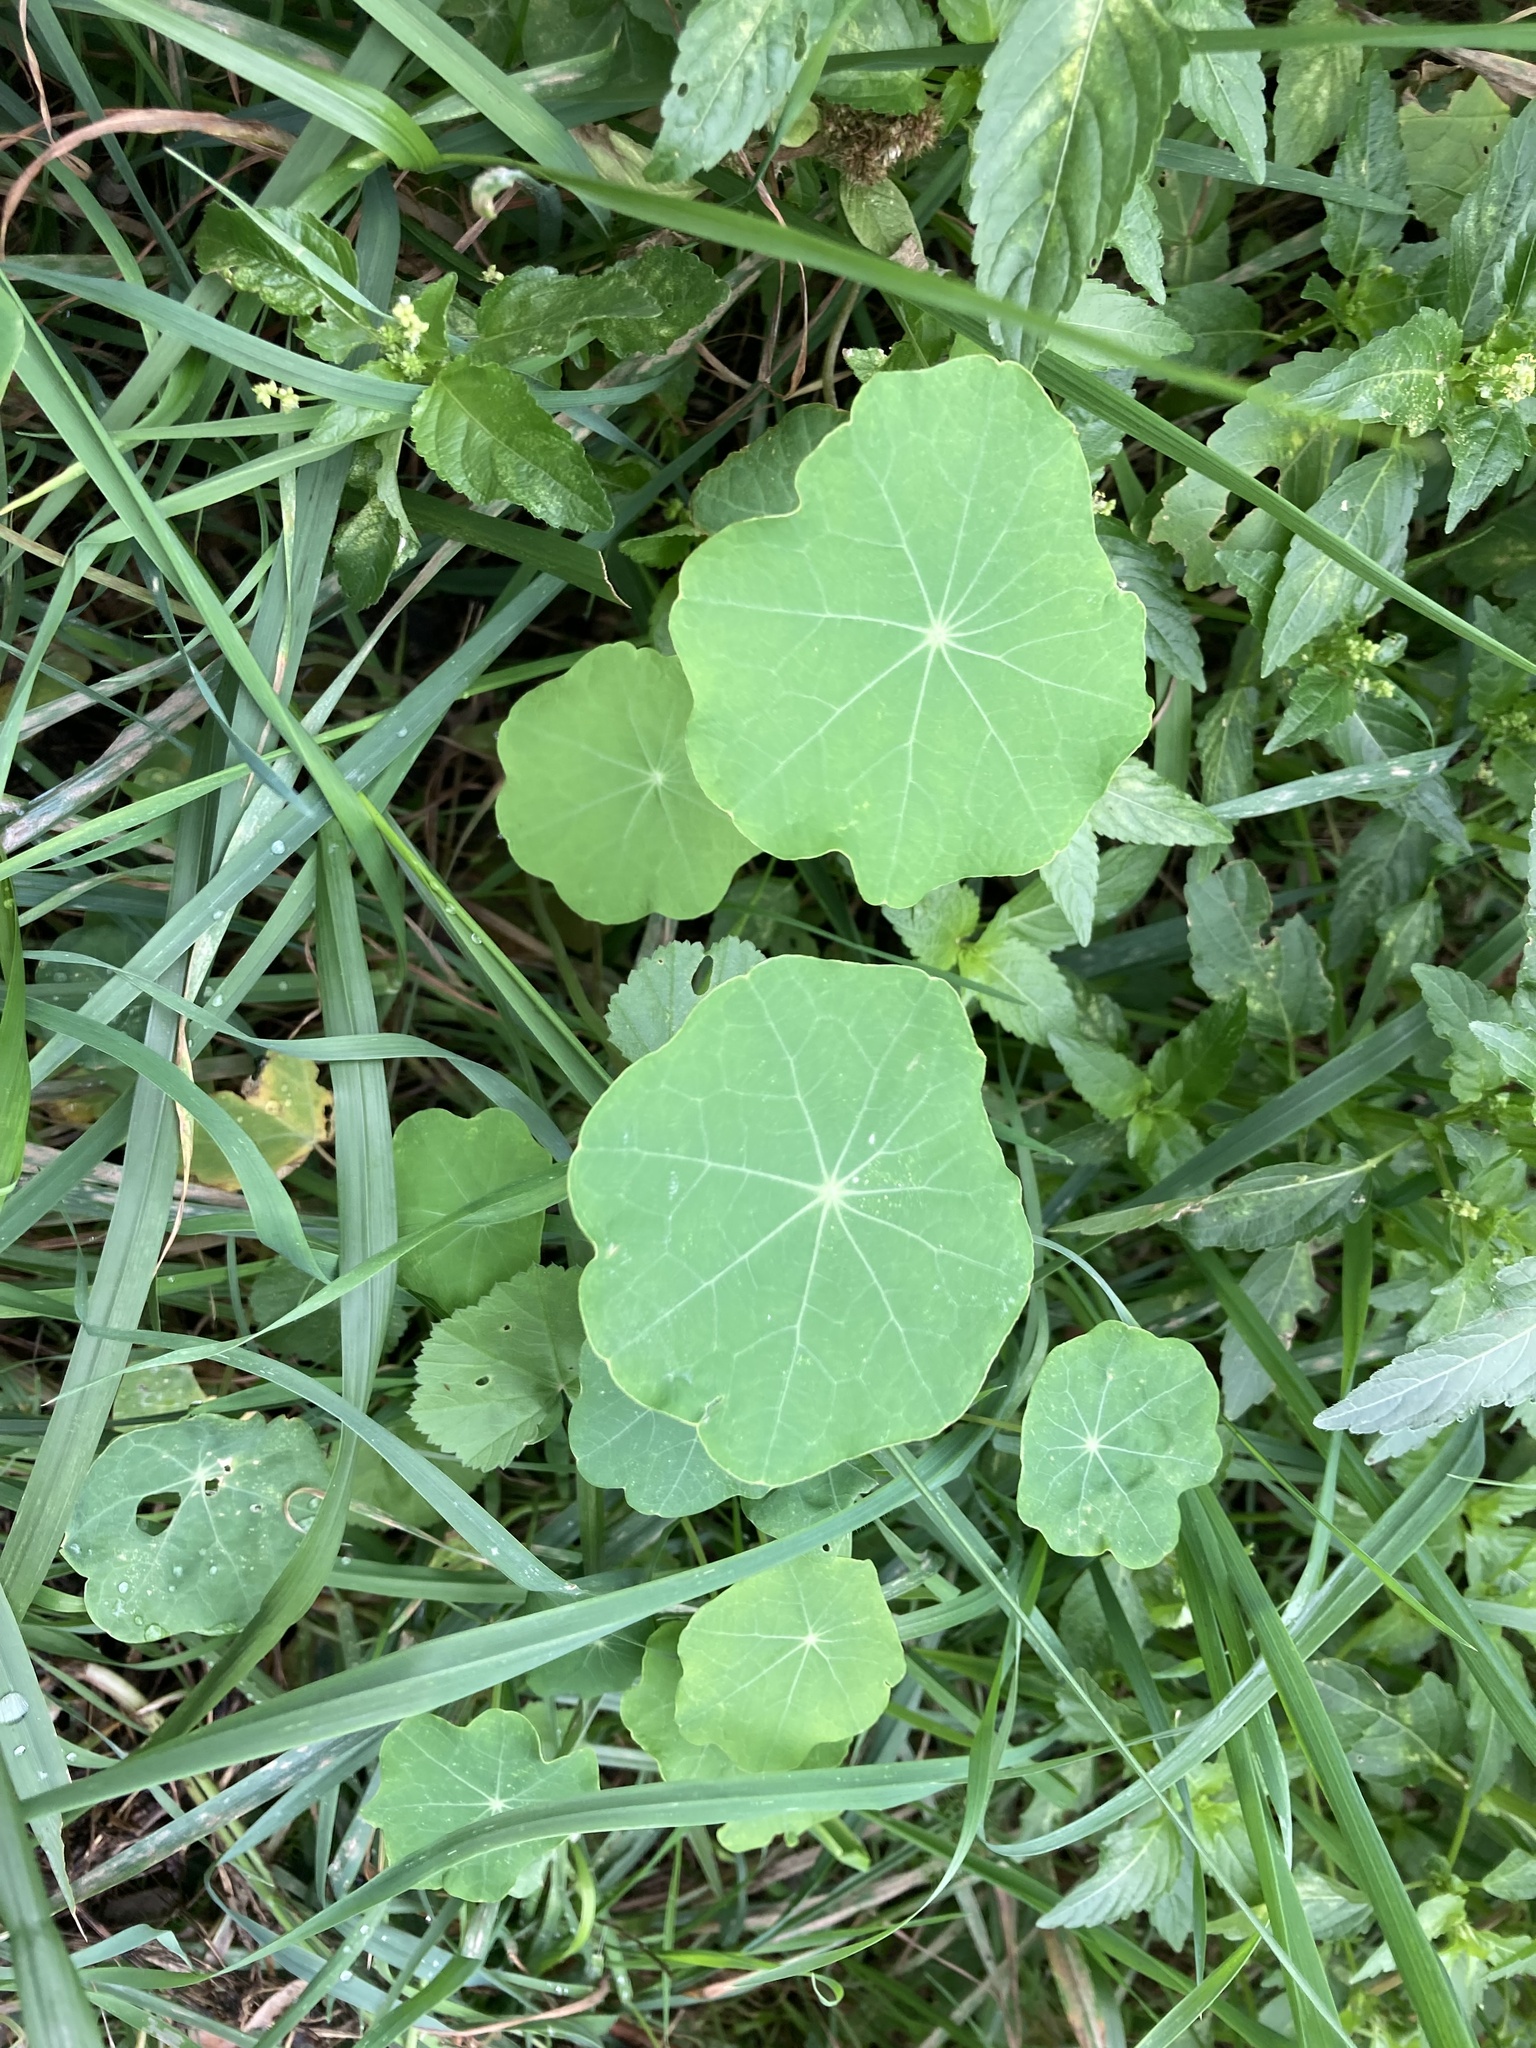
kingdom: Plantae
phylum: Tracheophyta
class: Magnoliopsida
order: Brassicales
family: Tropaeolaceae
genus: Tropaeolum
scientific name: Tropaeolum majus
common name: Nasturtium
